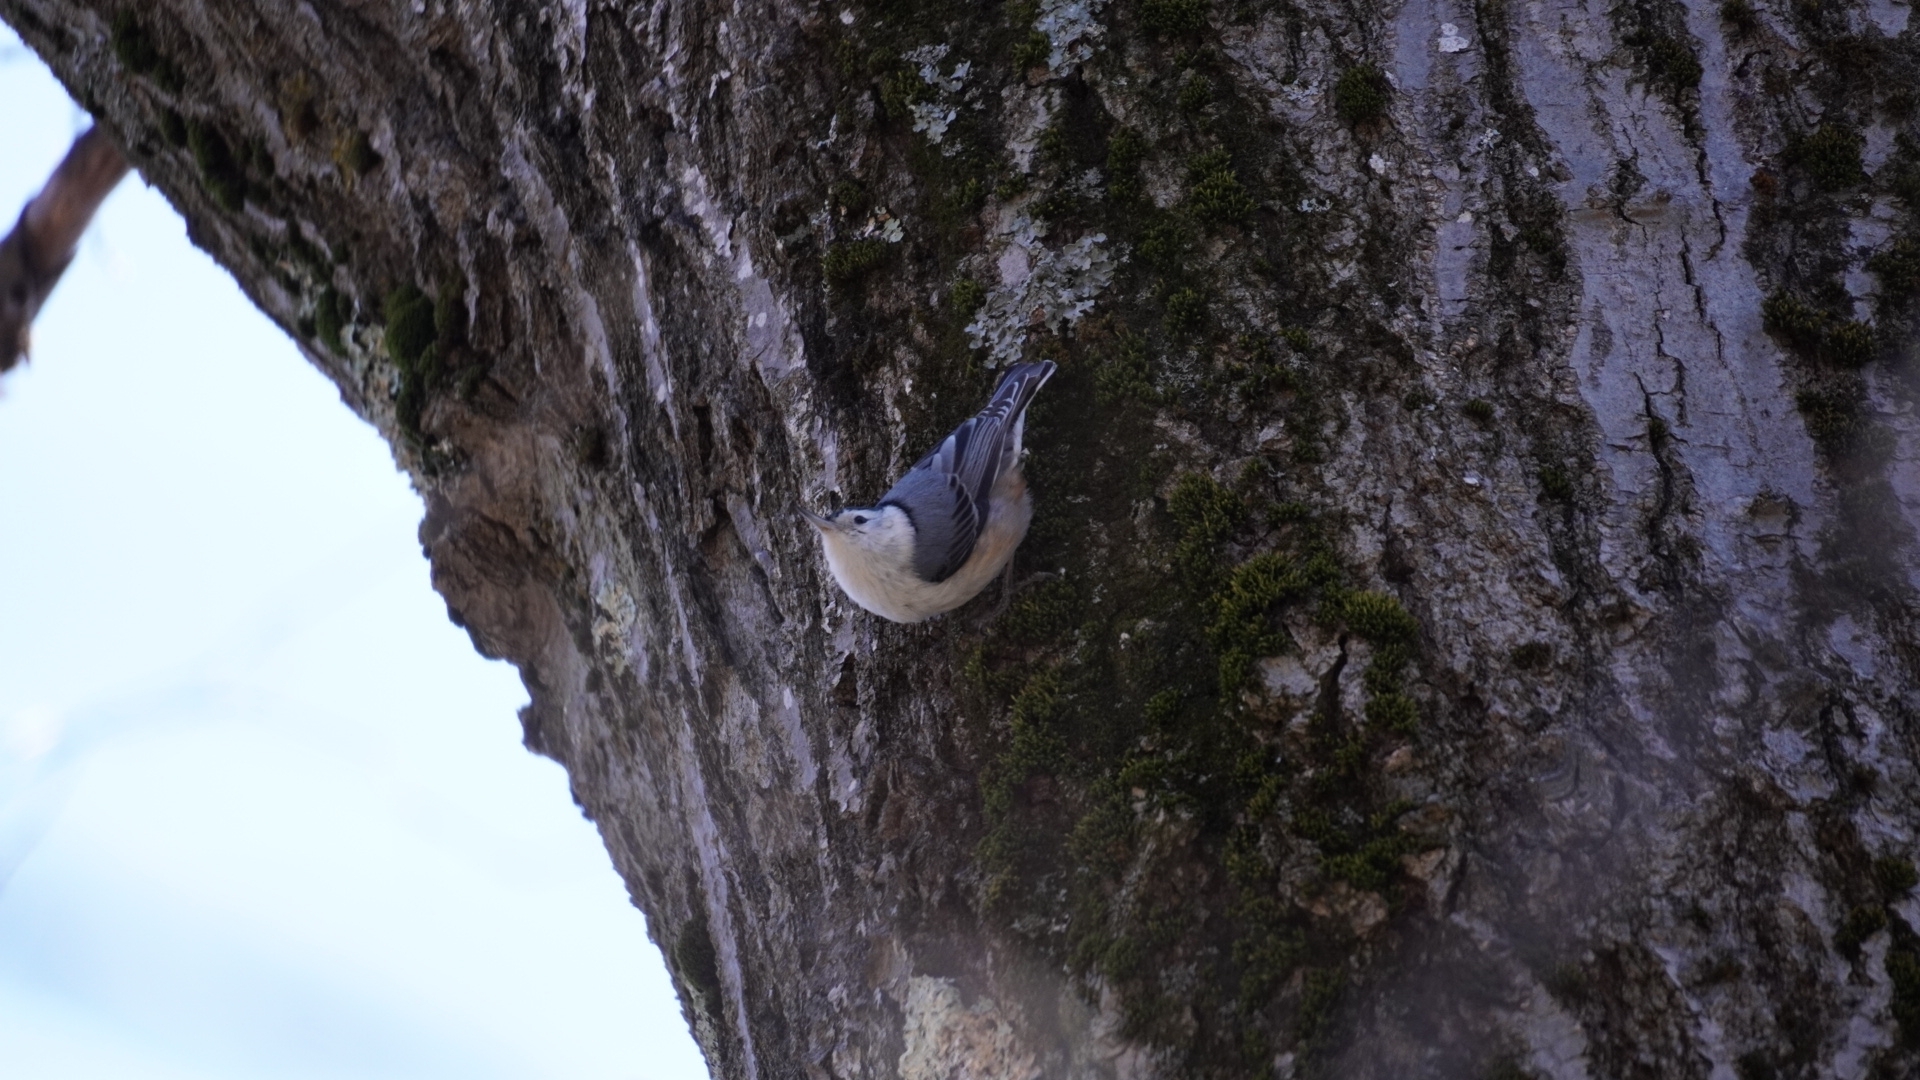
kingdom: Animalia
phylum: Chordata
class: Aves
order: Passeriformes
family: Sittidae
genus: Sitta
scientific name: Sitta carolinensis
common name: White-breasted nuthatch
